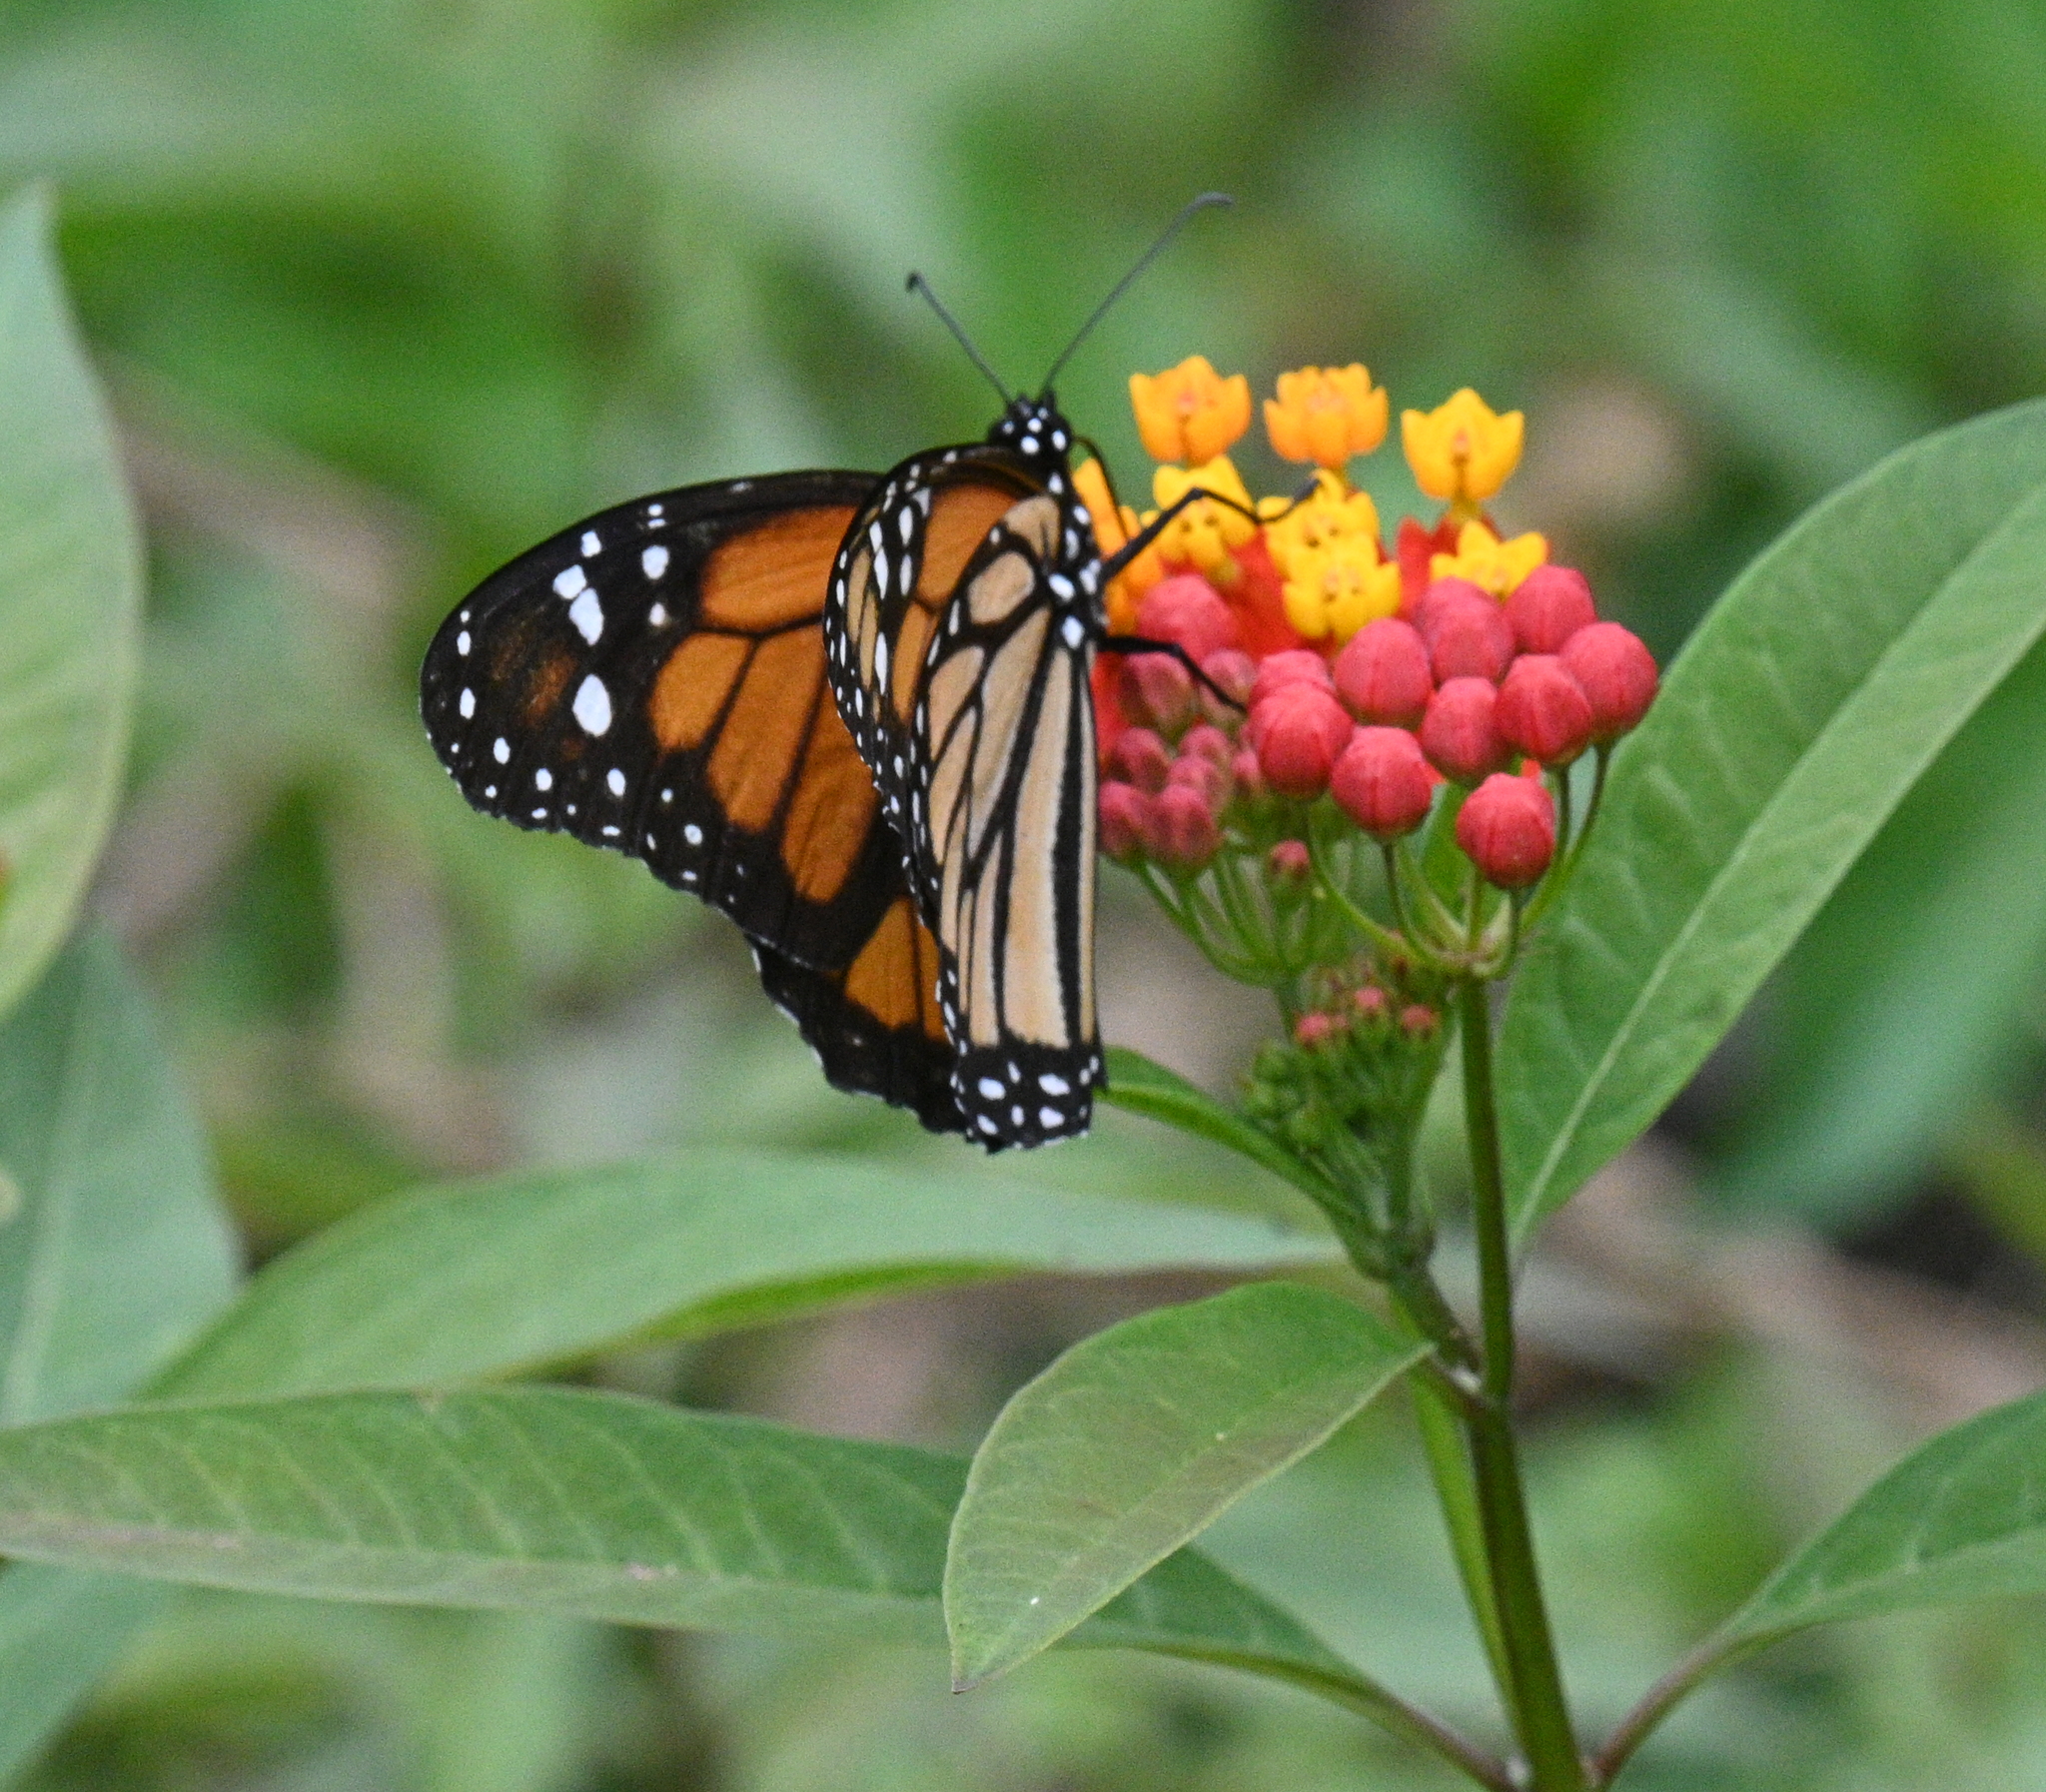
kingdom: Animalia
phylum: Arthropoda
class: Insecta
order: Lepidoptera
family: Nymphalidae
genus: Danaus
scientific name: Danaus plexippus
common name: Monarch
